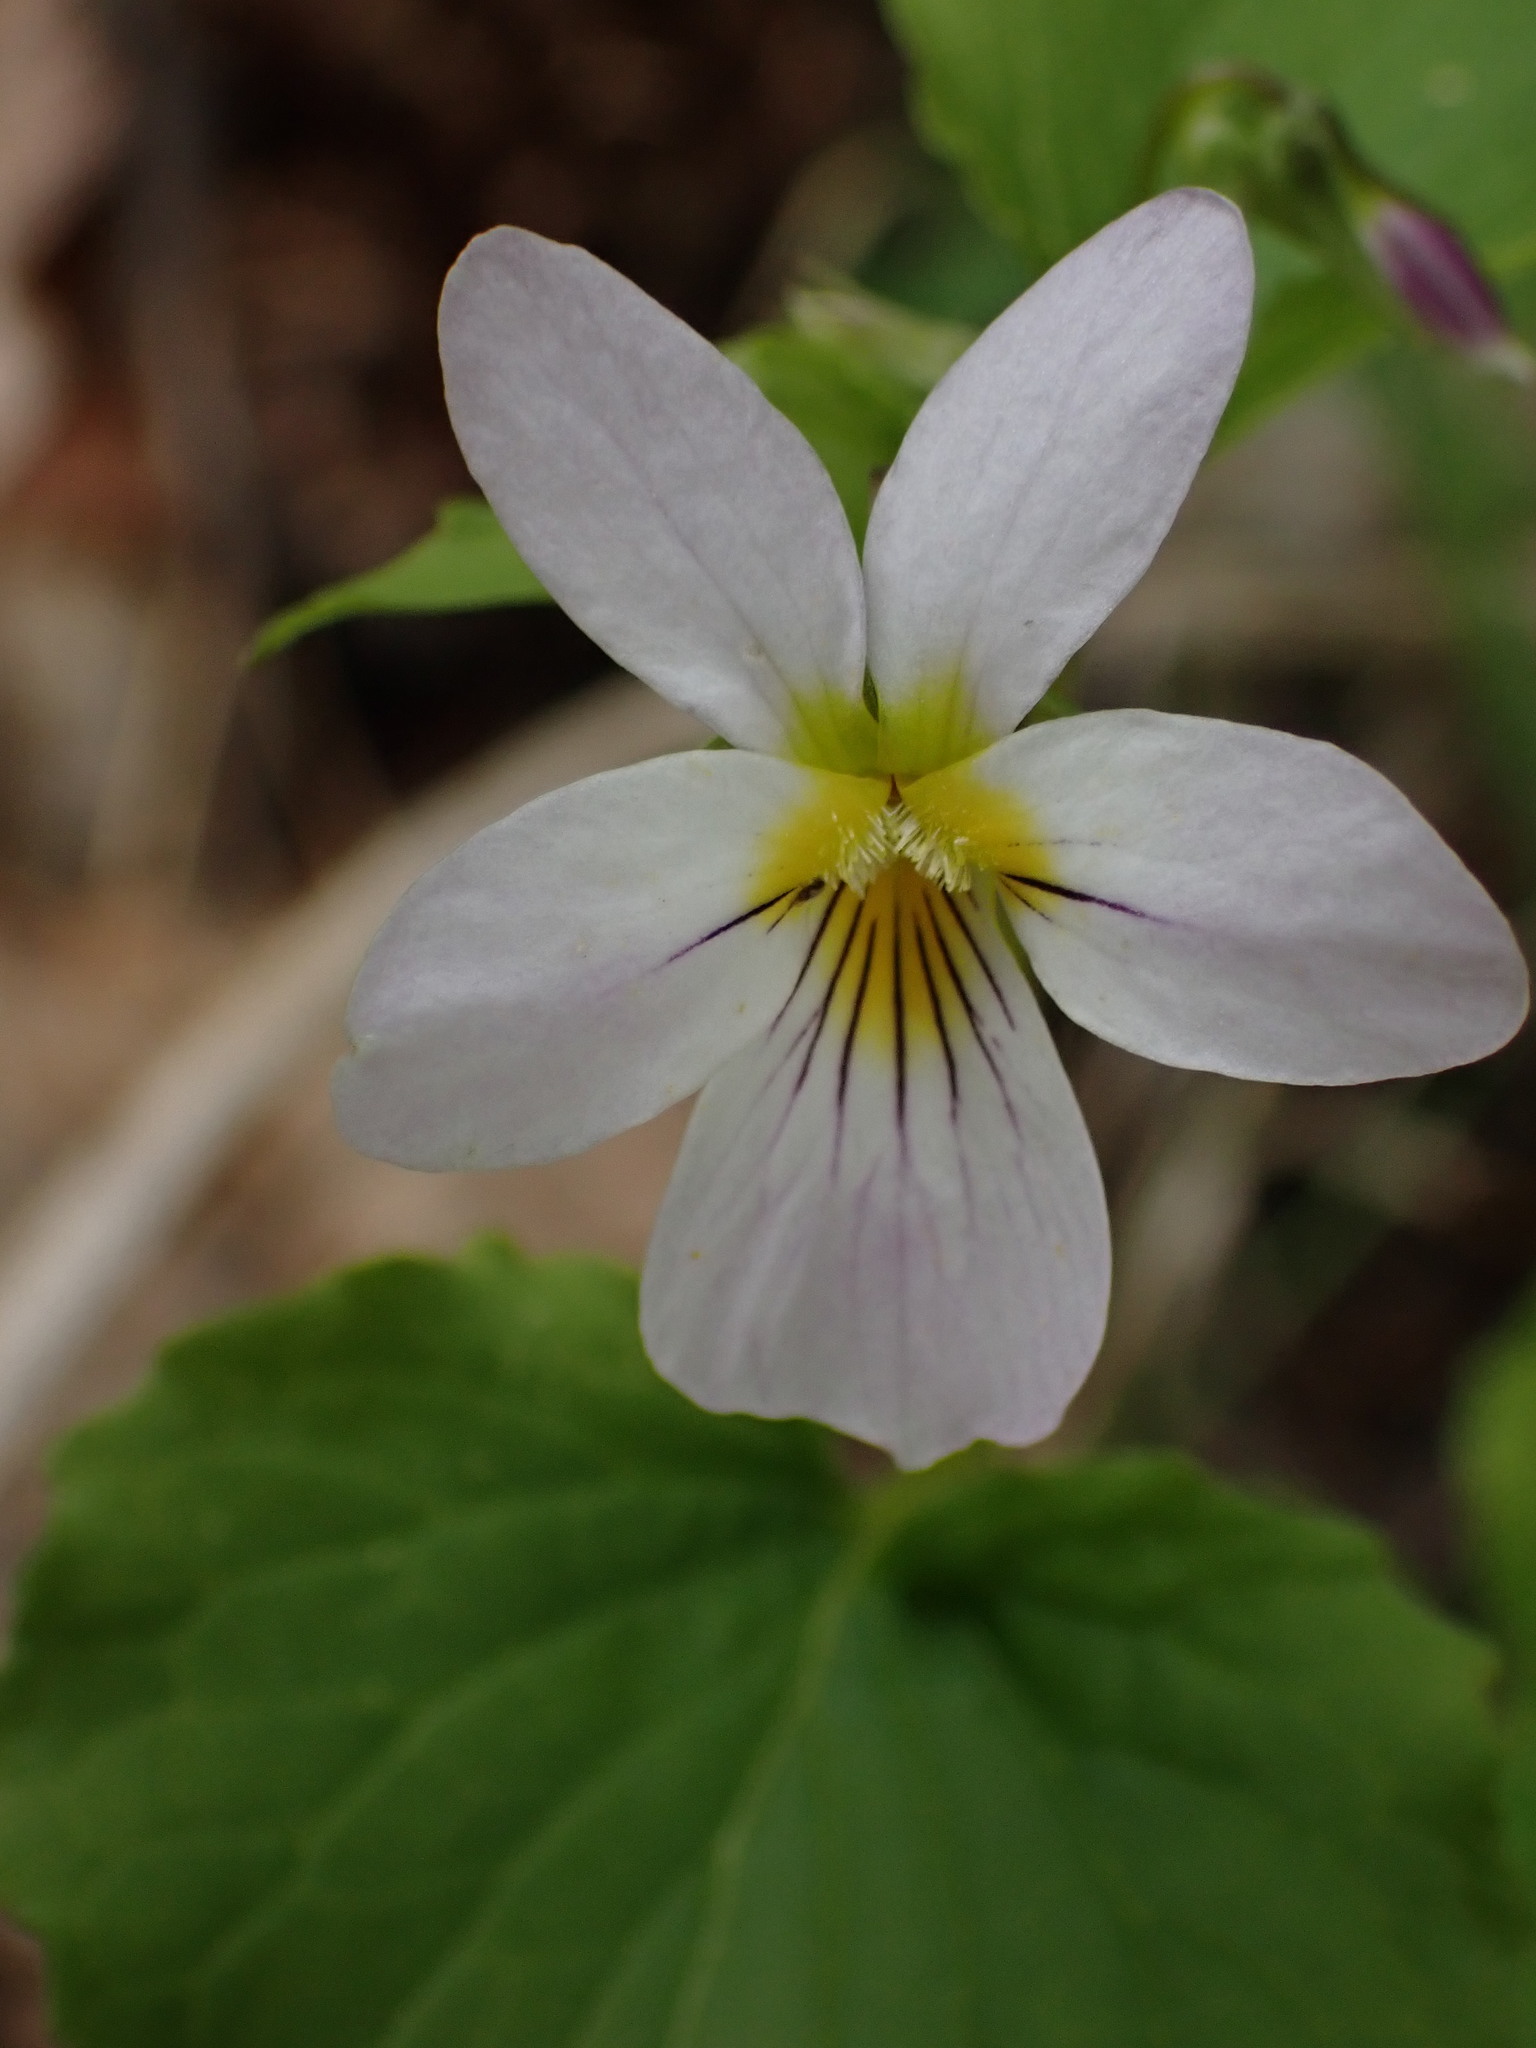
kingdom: Plantae
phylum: Tracheophyta
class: Magnoliopsida
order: Malpighiales
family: Violaceae
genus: Viola
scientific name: Viola canadensis
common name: Canada violet
